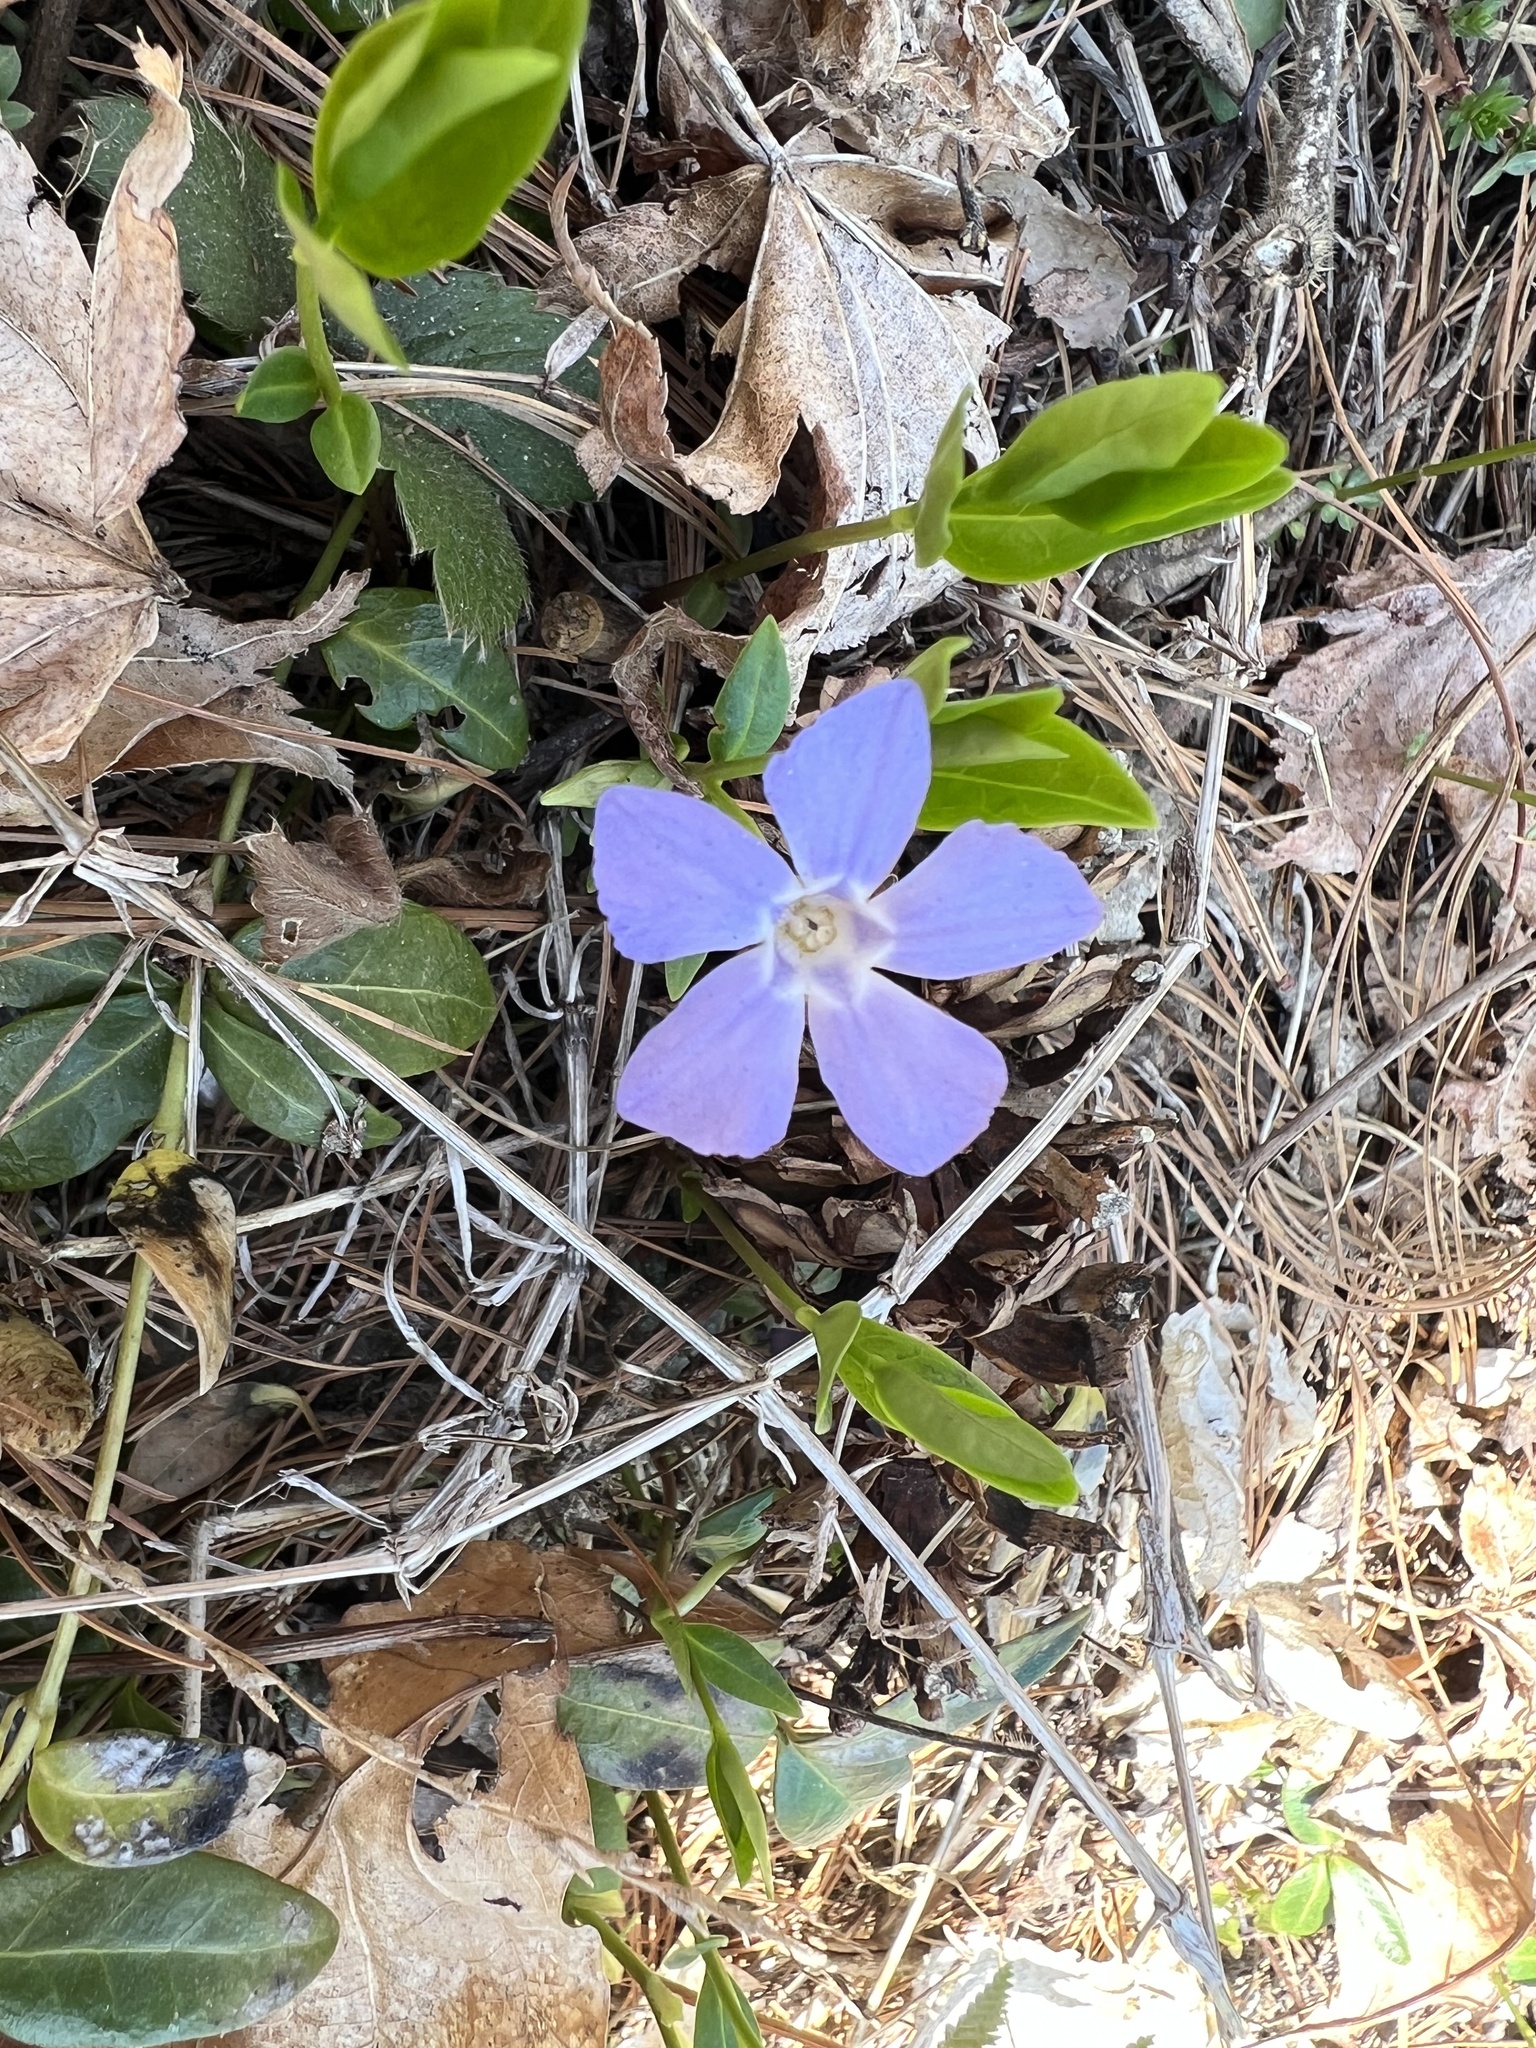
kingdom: Plantae
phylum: Tracheophyta
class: Magnoliopsida
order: Gentianales
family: Apocynaceae
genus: Vinca
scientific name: Vinca minor
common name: Lesser periwinkle
